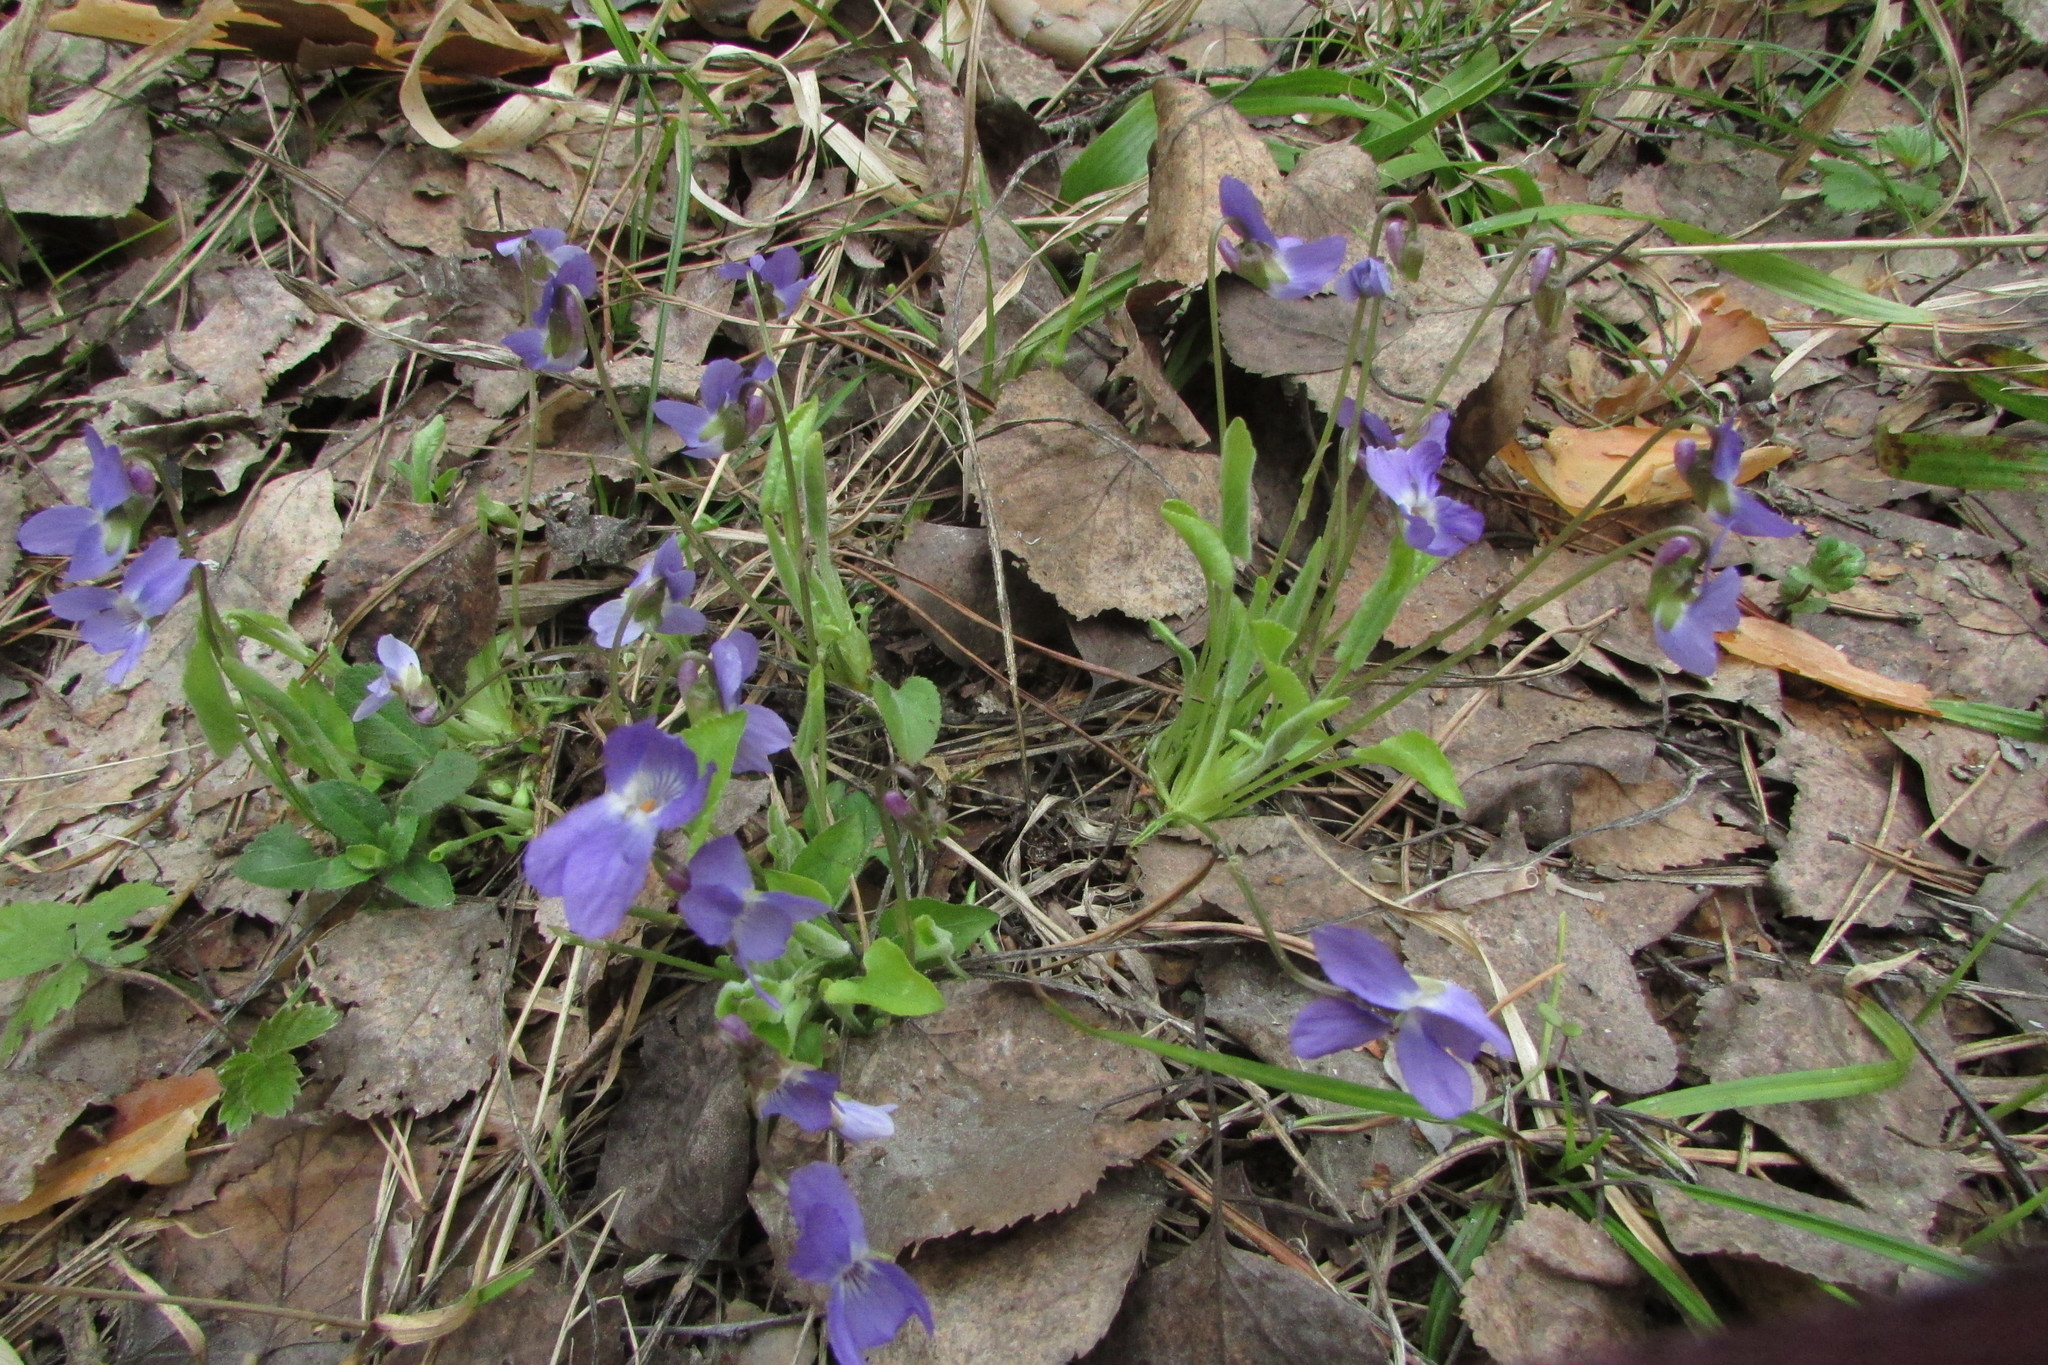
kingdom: Plantae
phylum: Tracheophyta
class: Magnoliopsida
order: Malpighiales
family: Violaceae
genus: Viola
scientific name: Viola hirta
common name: Hairy violet
